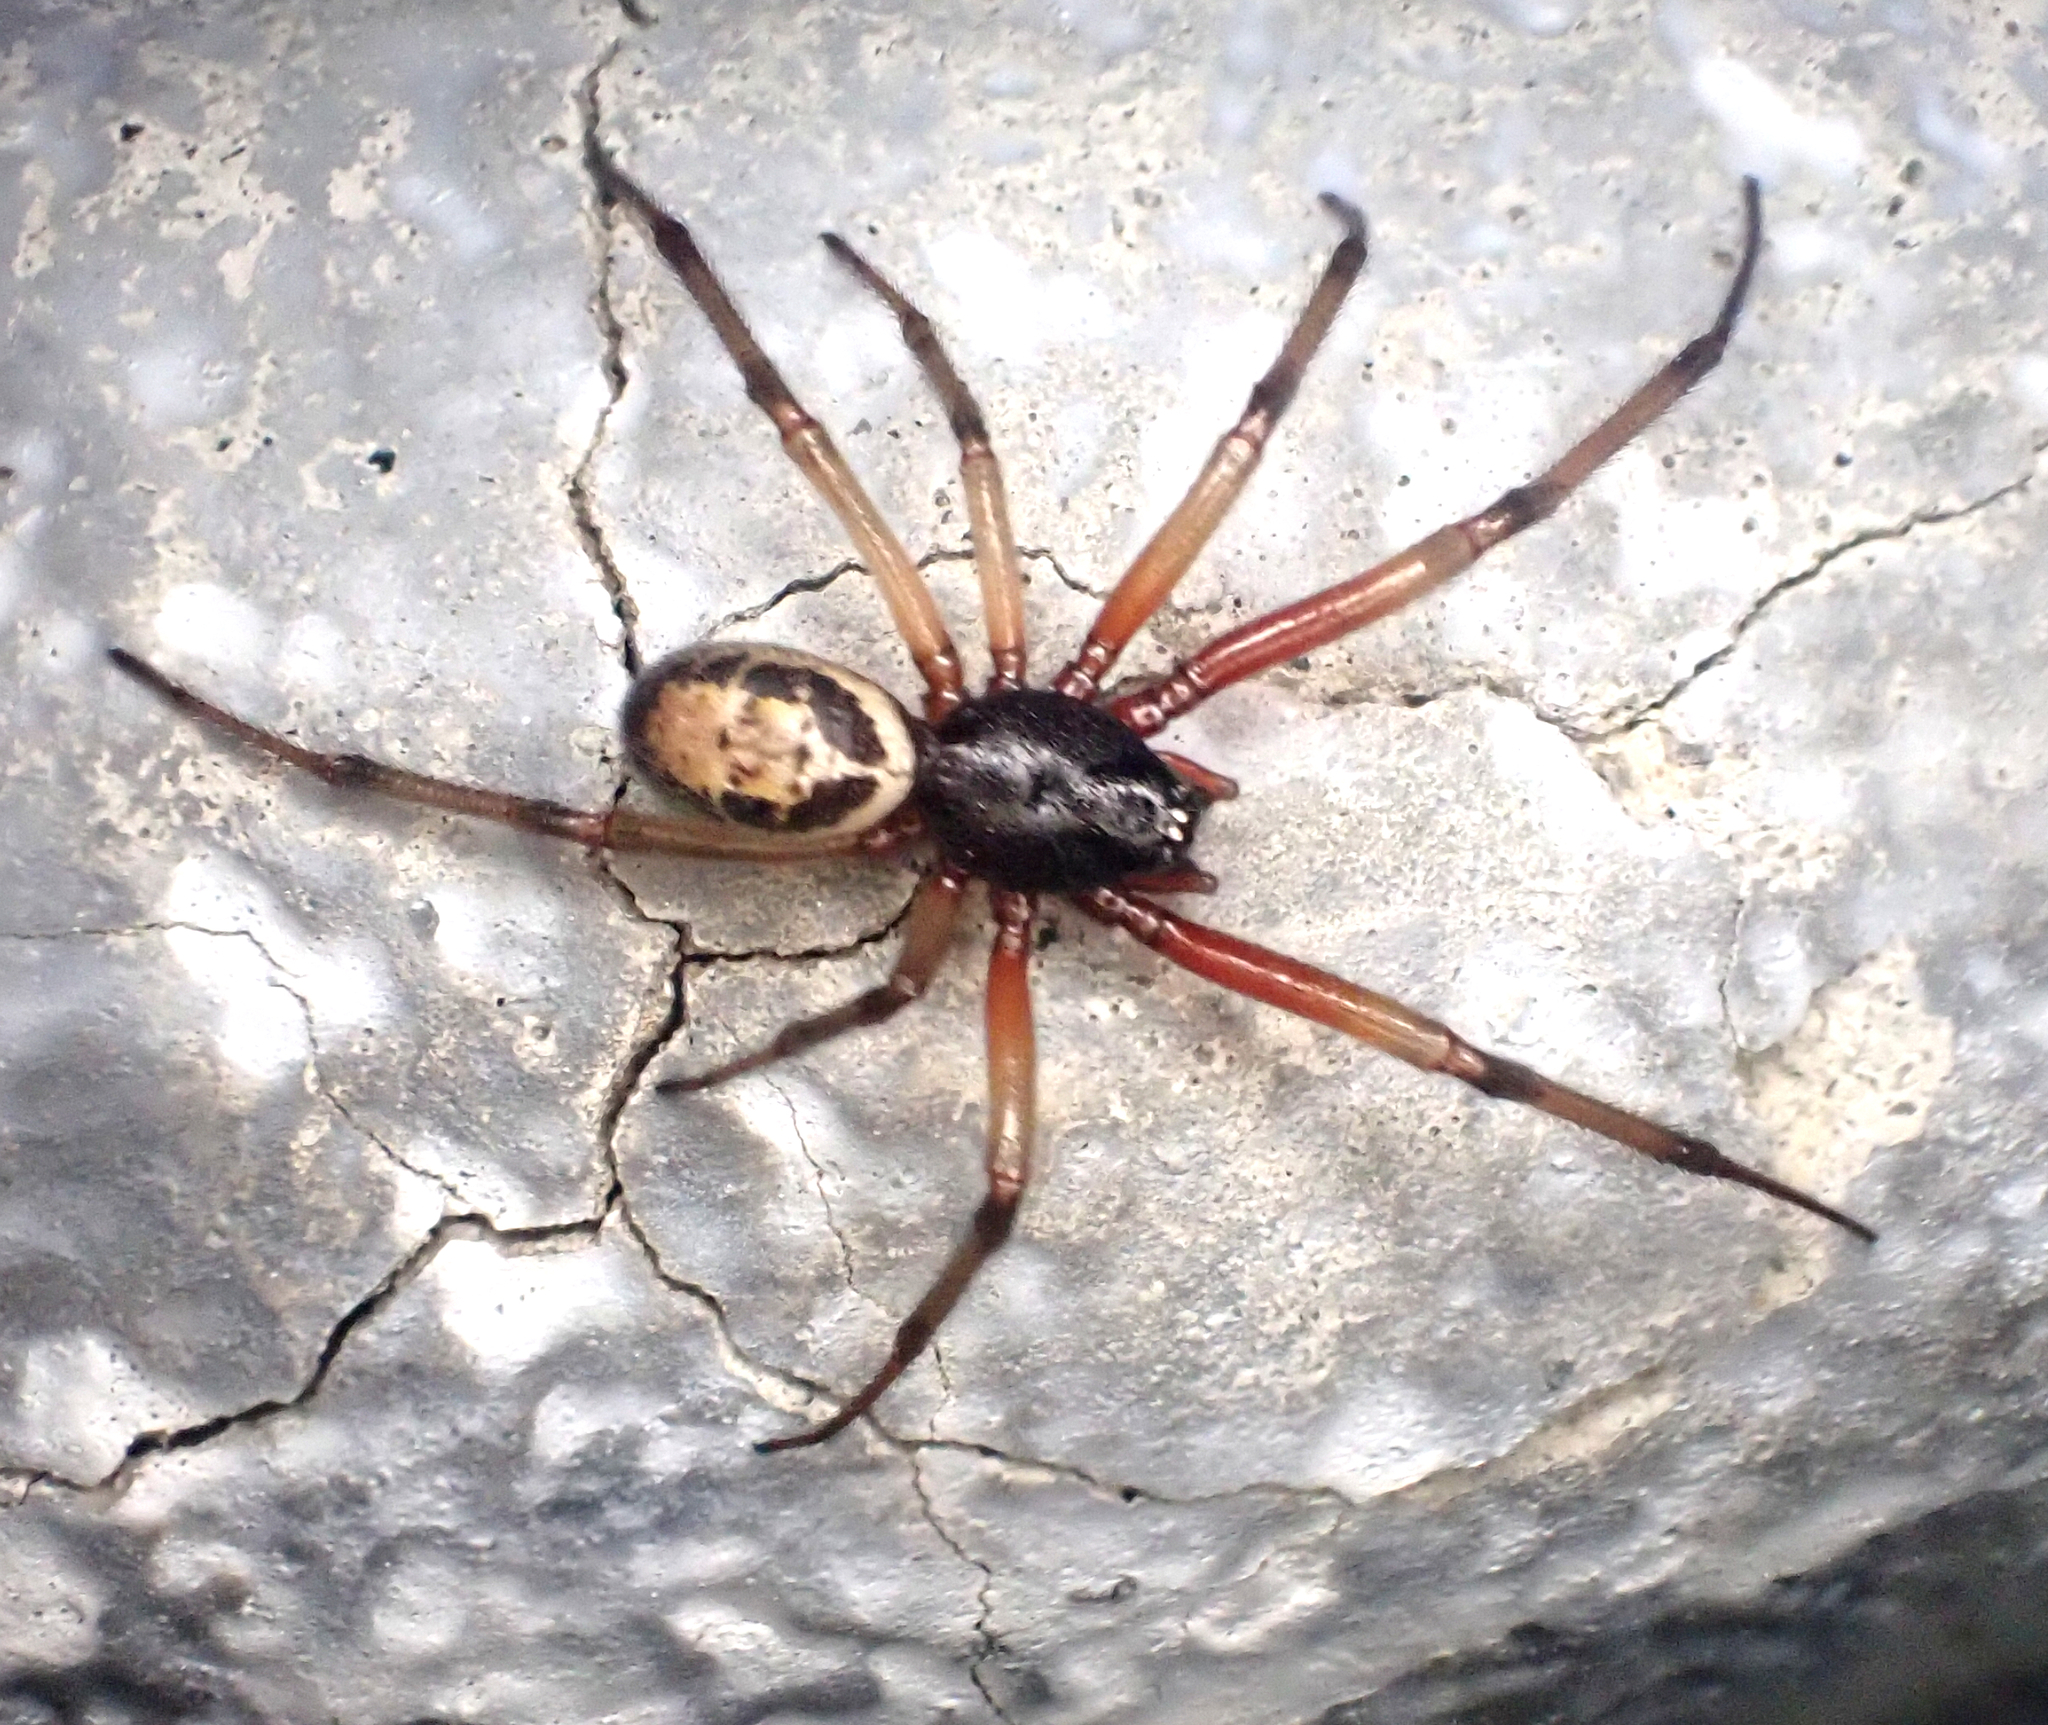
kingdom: Animalia
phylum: Arthropoda
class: Arachnida
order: Araneae
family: Theridiidae
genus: Steatoda
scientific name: Steatoda nobilis
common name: Cobweb weaver
